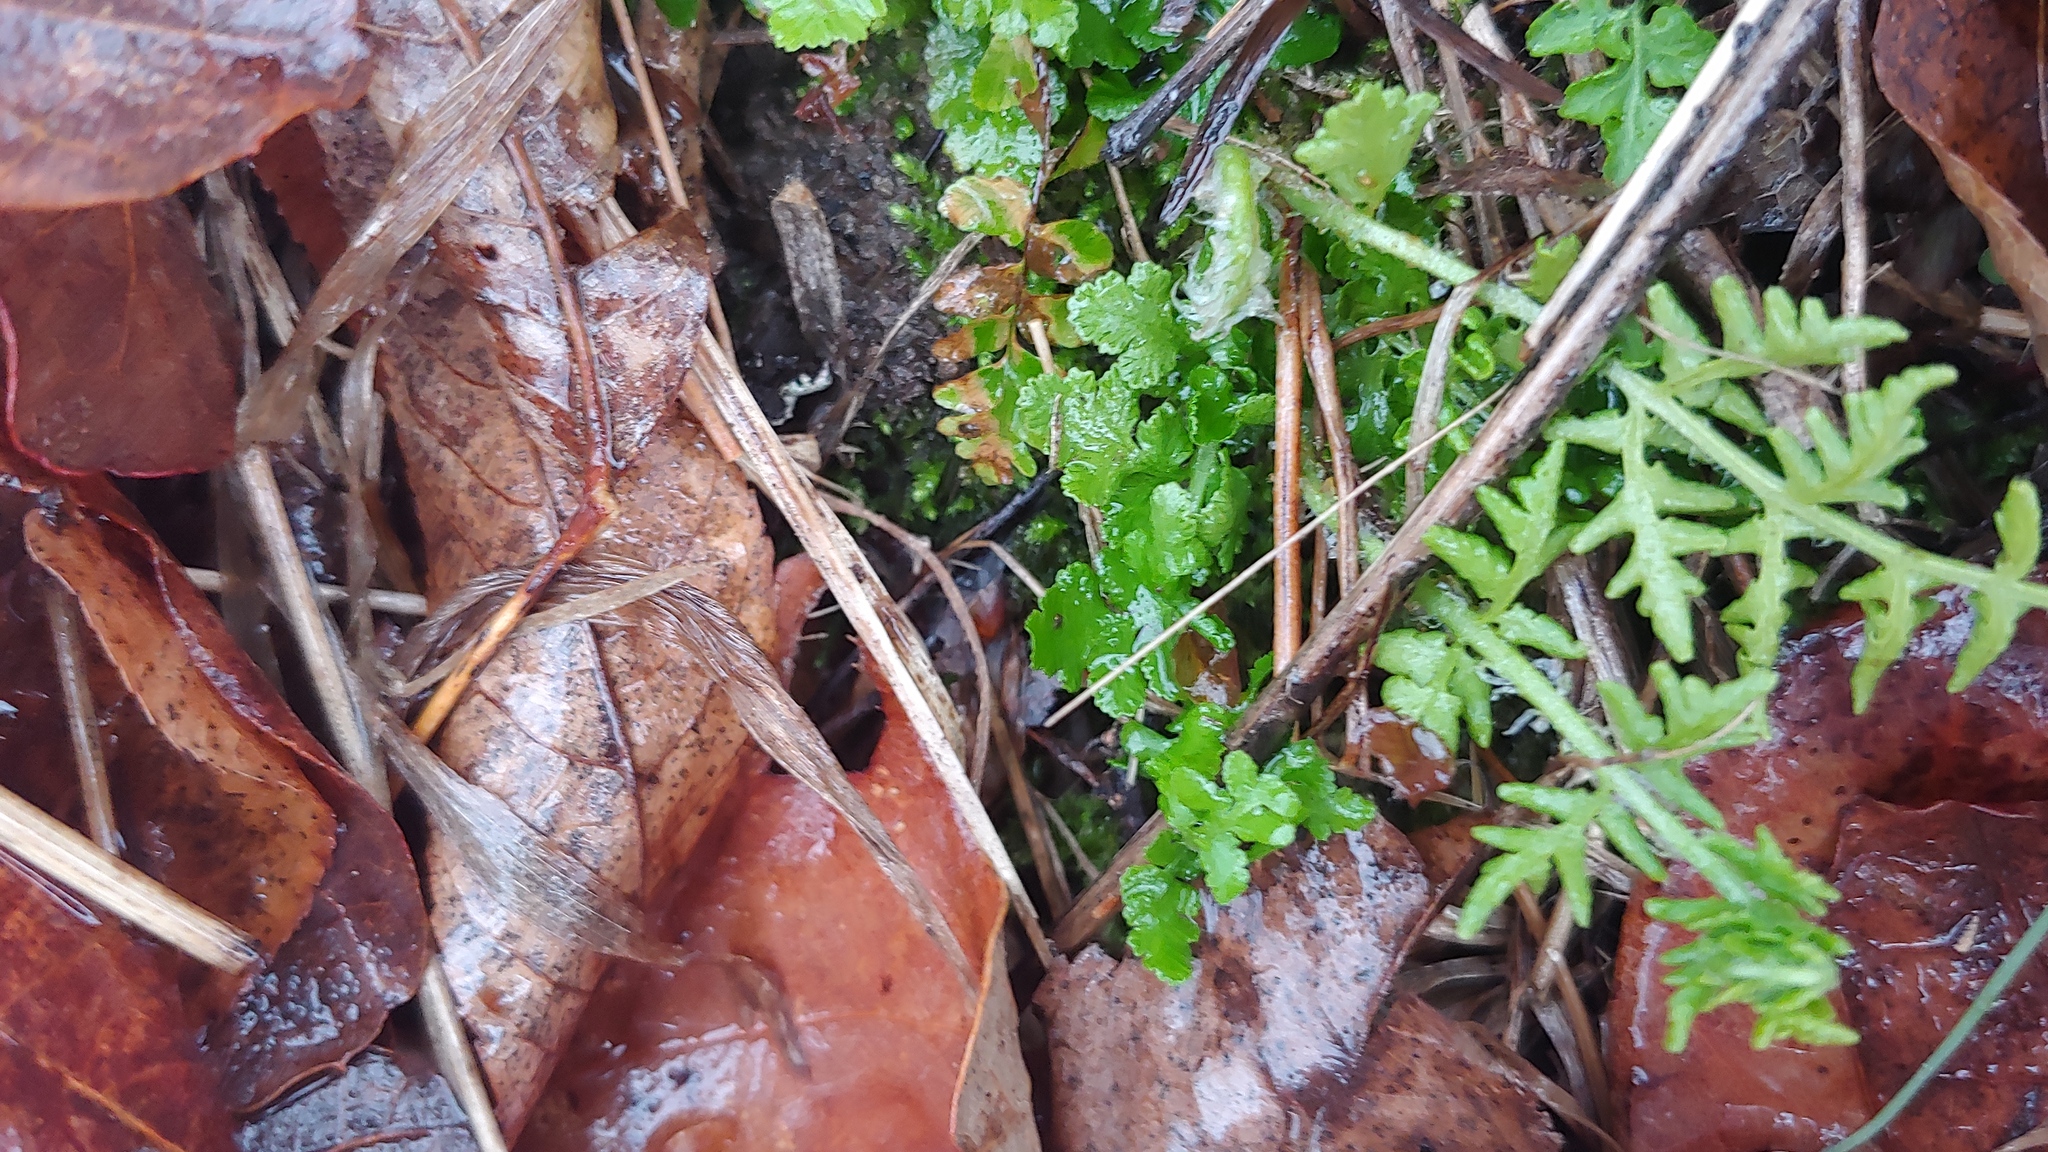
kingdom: Plantae
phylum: Tracheophyta
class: Polypodiopsida
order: Polypodiales
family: Woodsiaceae
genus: Physematium
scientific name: Physematium obtusum
